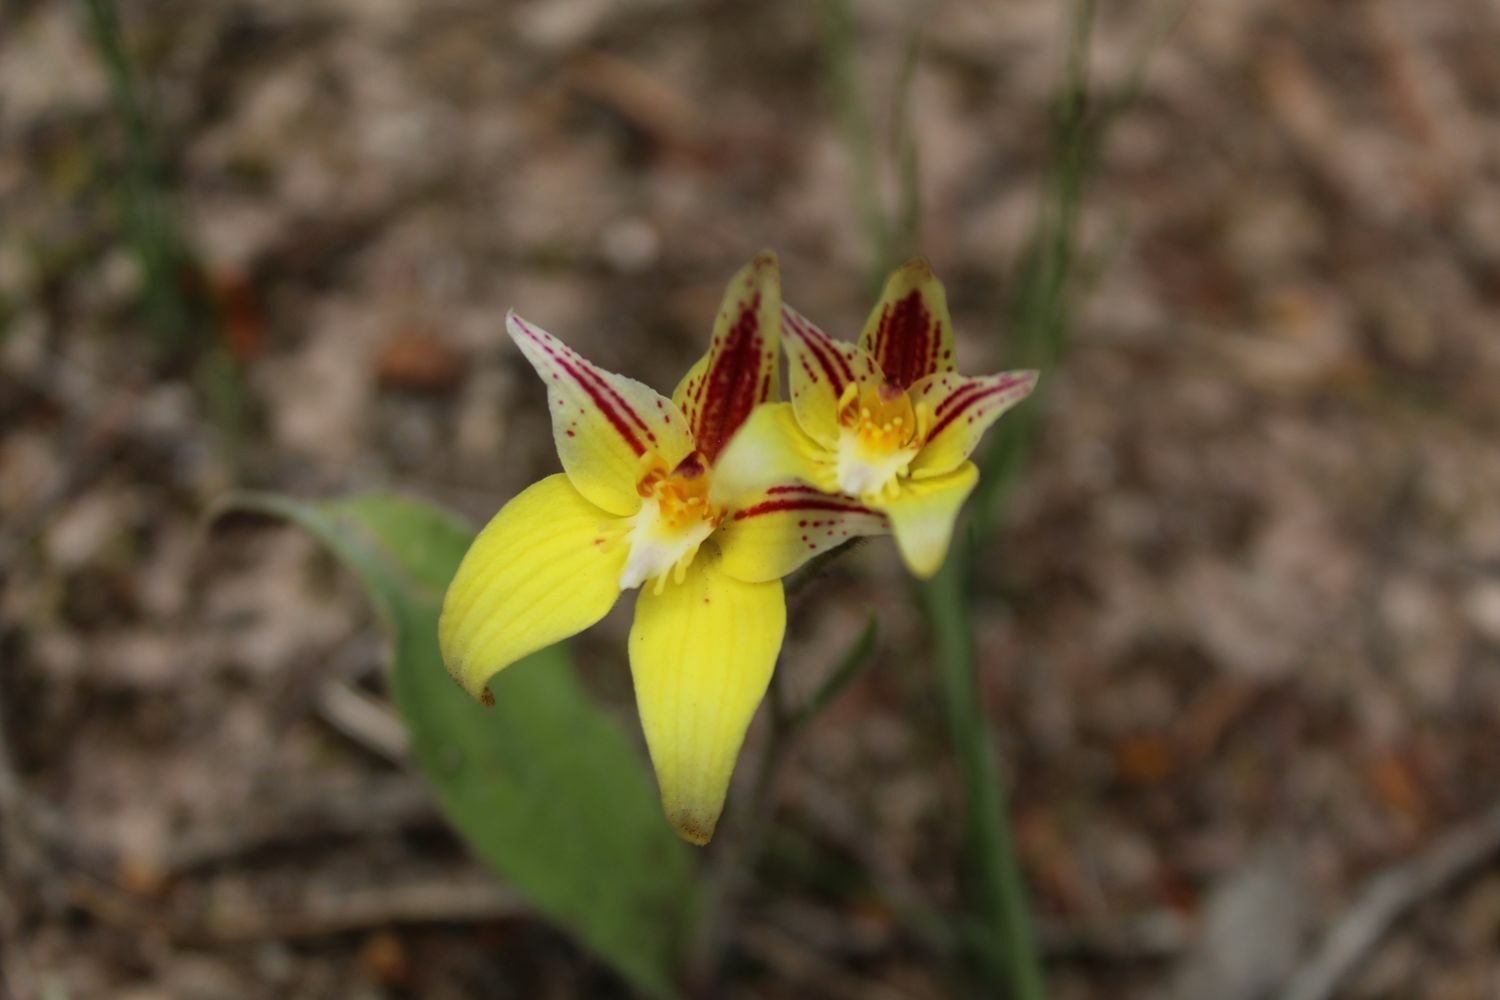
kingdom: Plantae
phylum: Tracheophyta
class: Liliopsida
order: Asparagales
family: Orchidaceae
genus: Caladenia
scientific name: Caladenia flava
